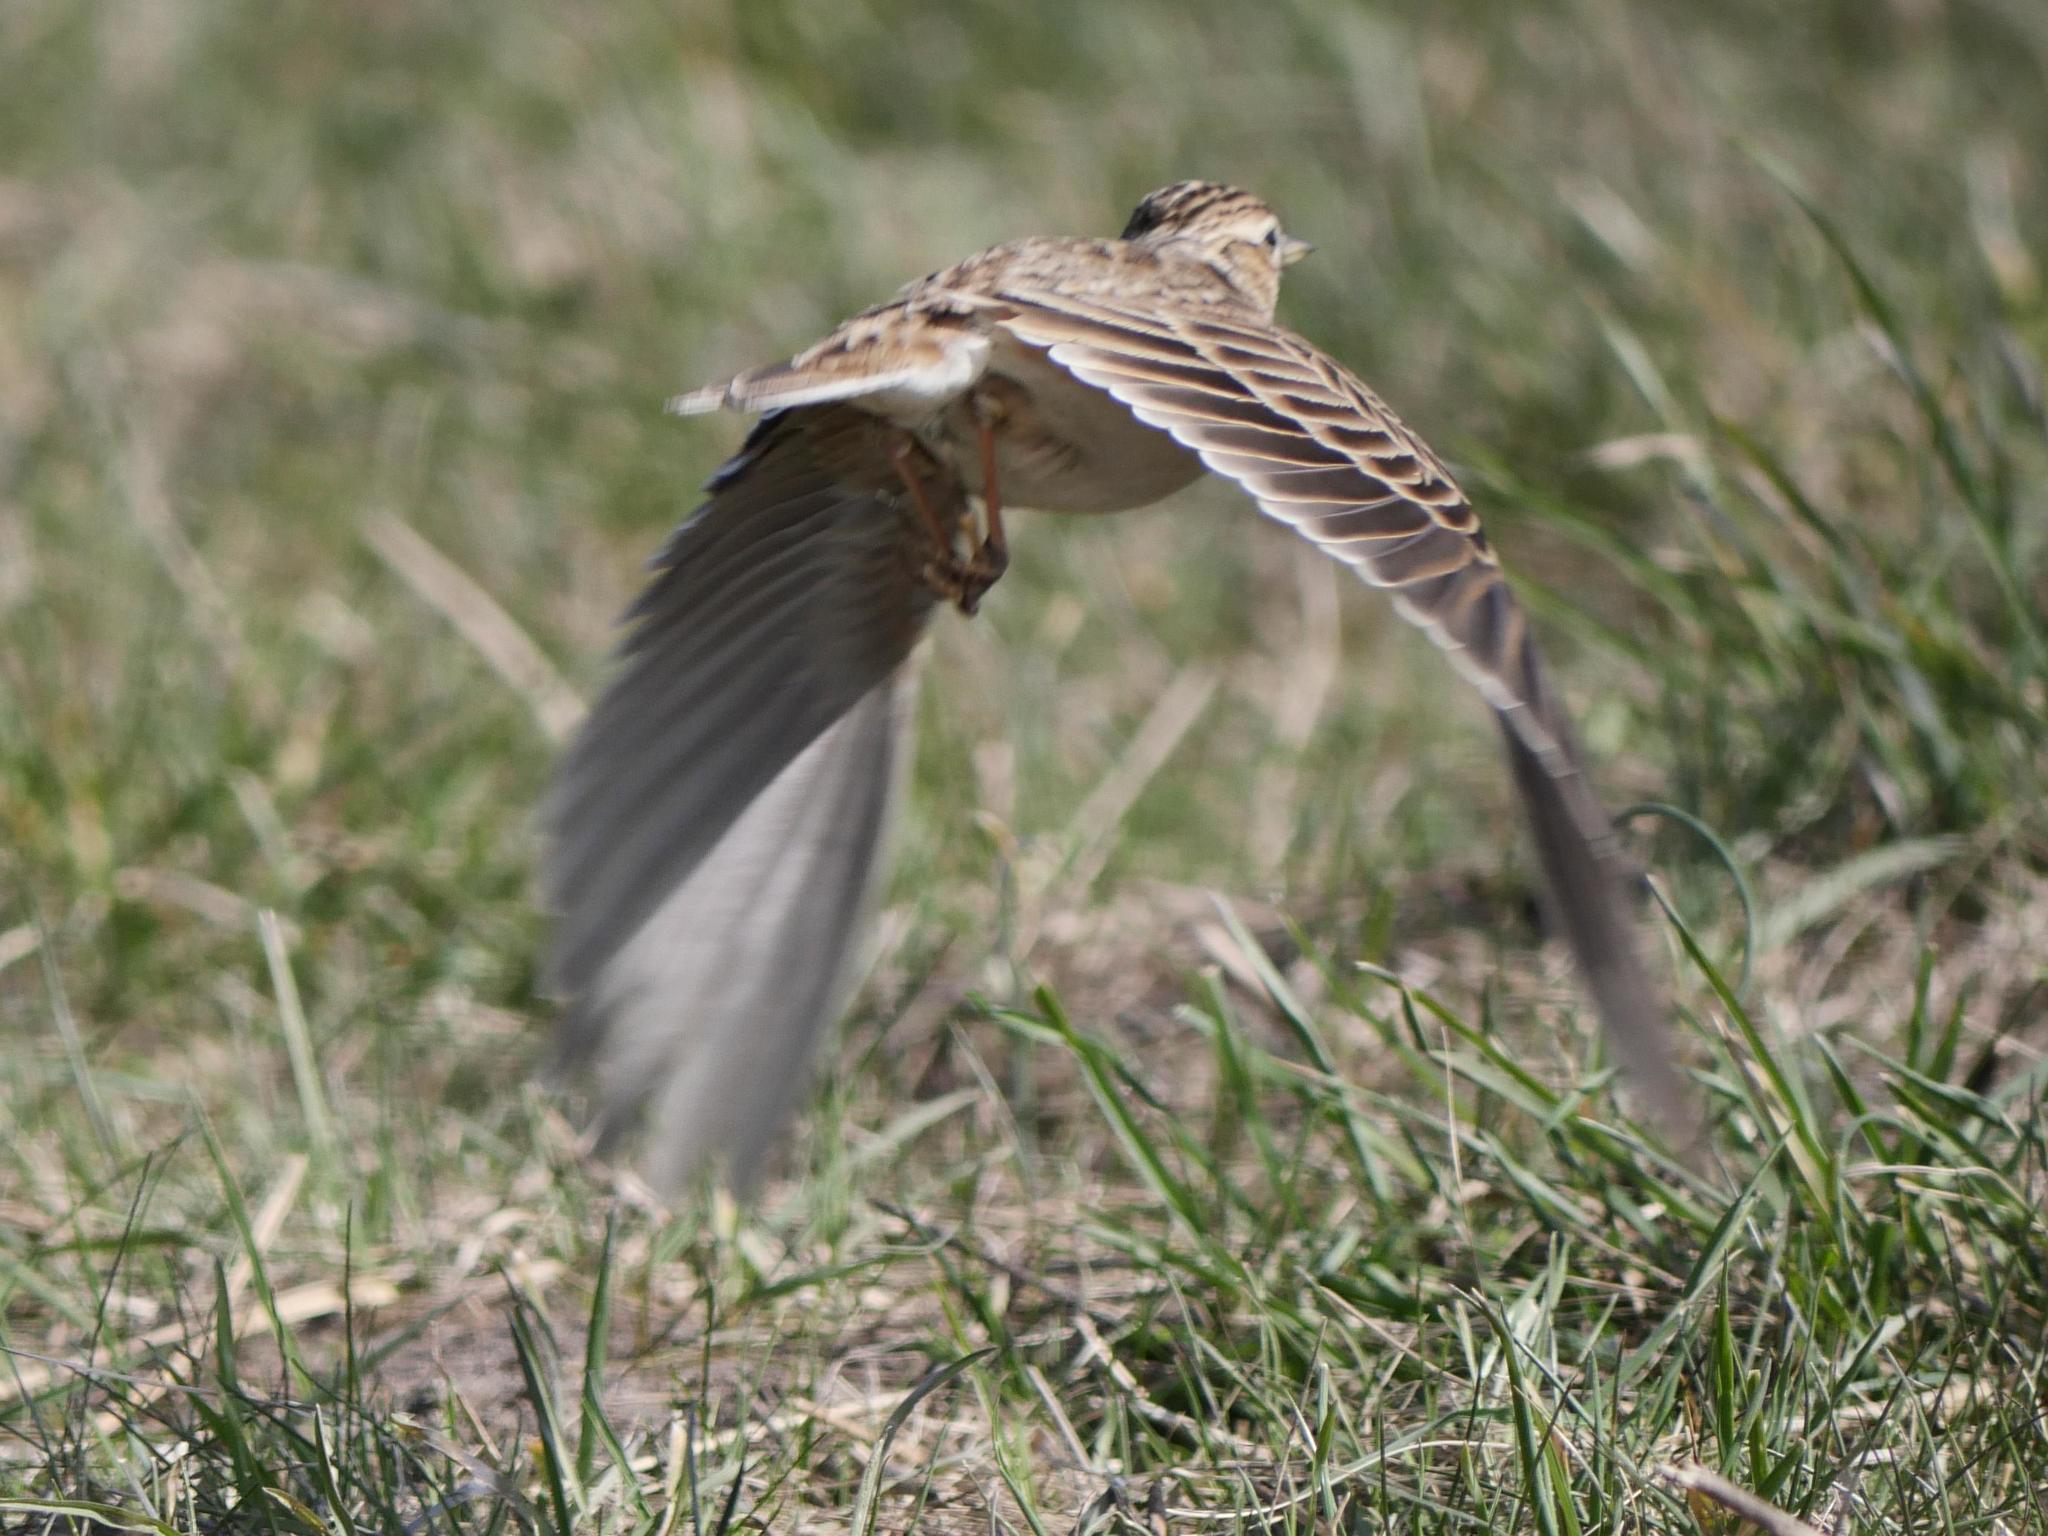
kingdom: Animalia
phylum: Chordata
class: Aves
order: Passeriformes
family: Alaudidae
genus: Alauda
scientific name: Alauda arvensis
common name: Eurasian skylark
